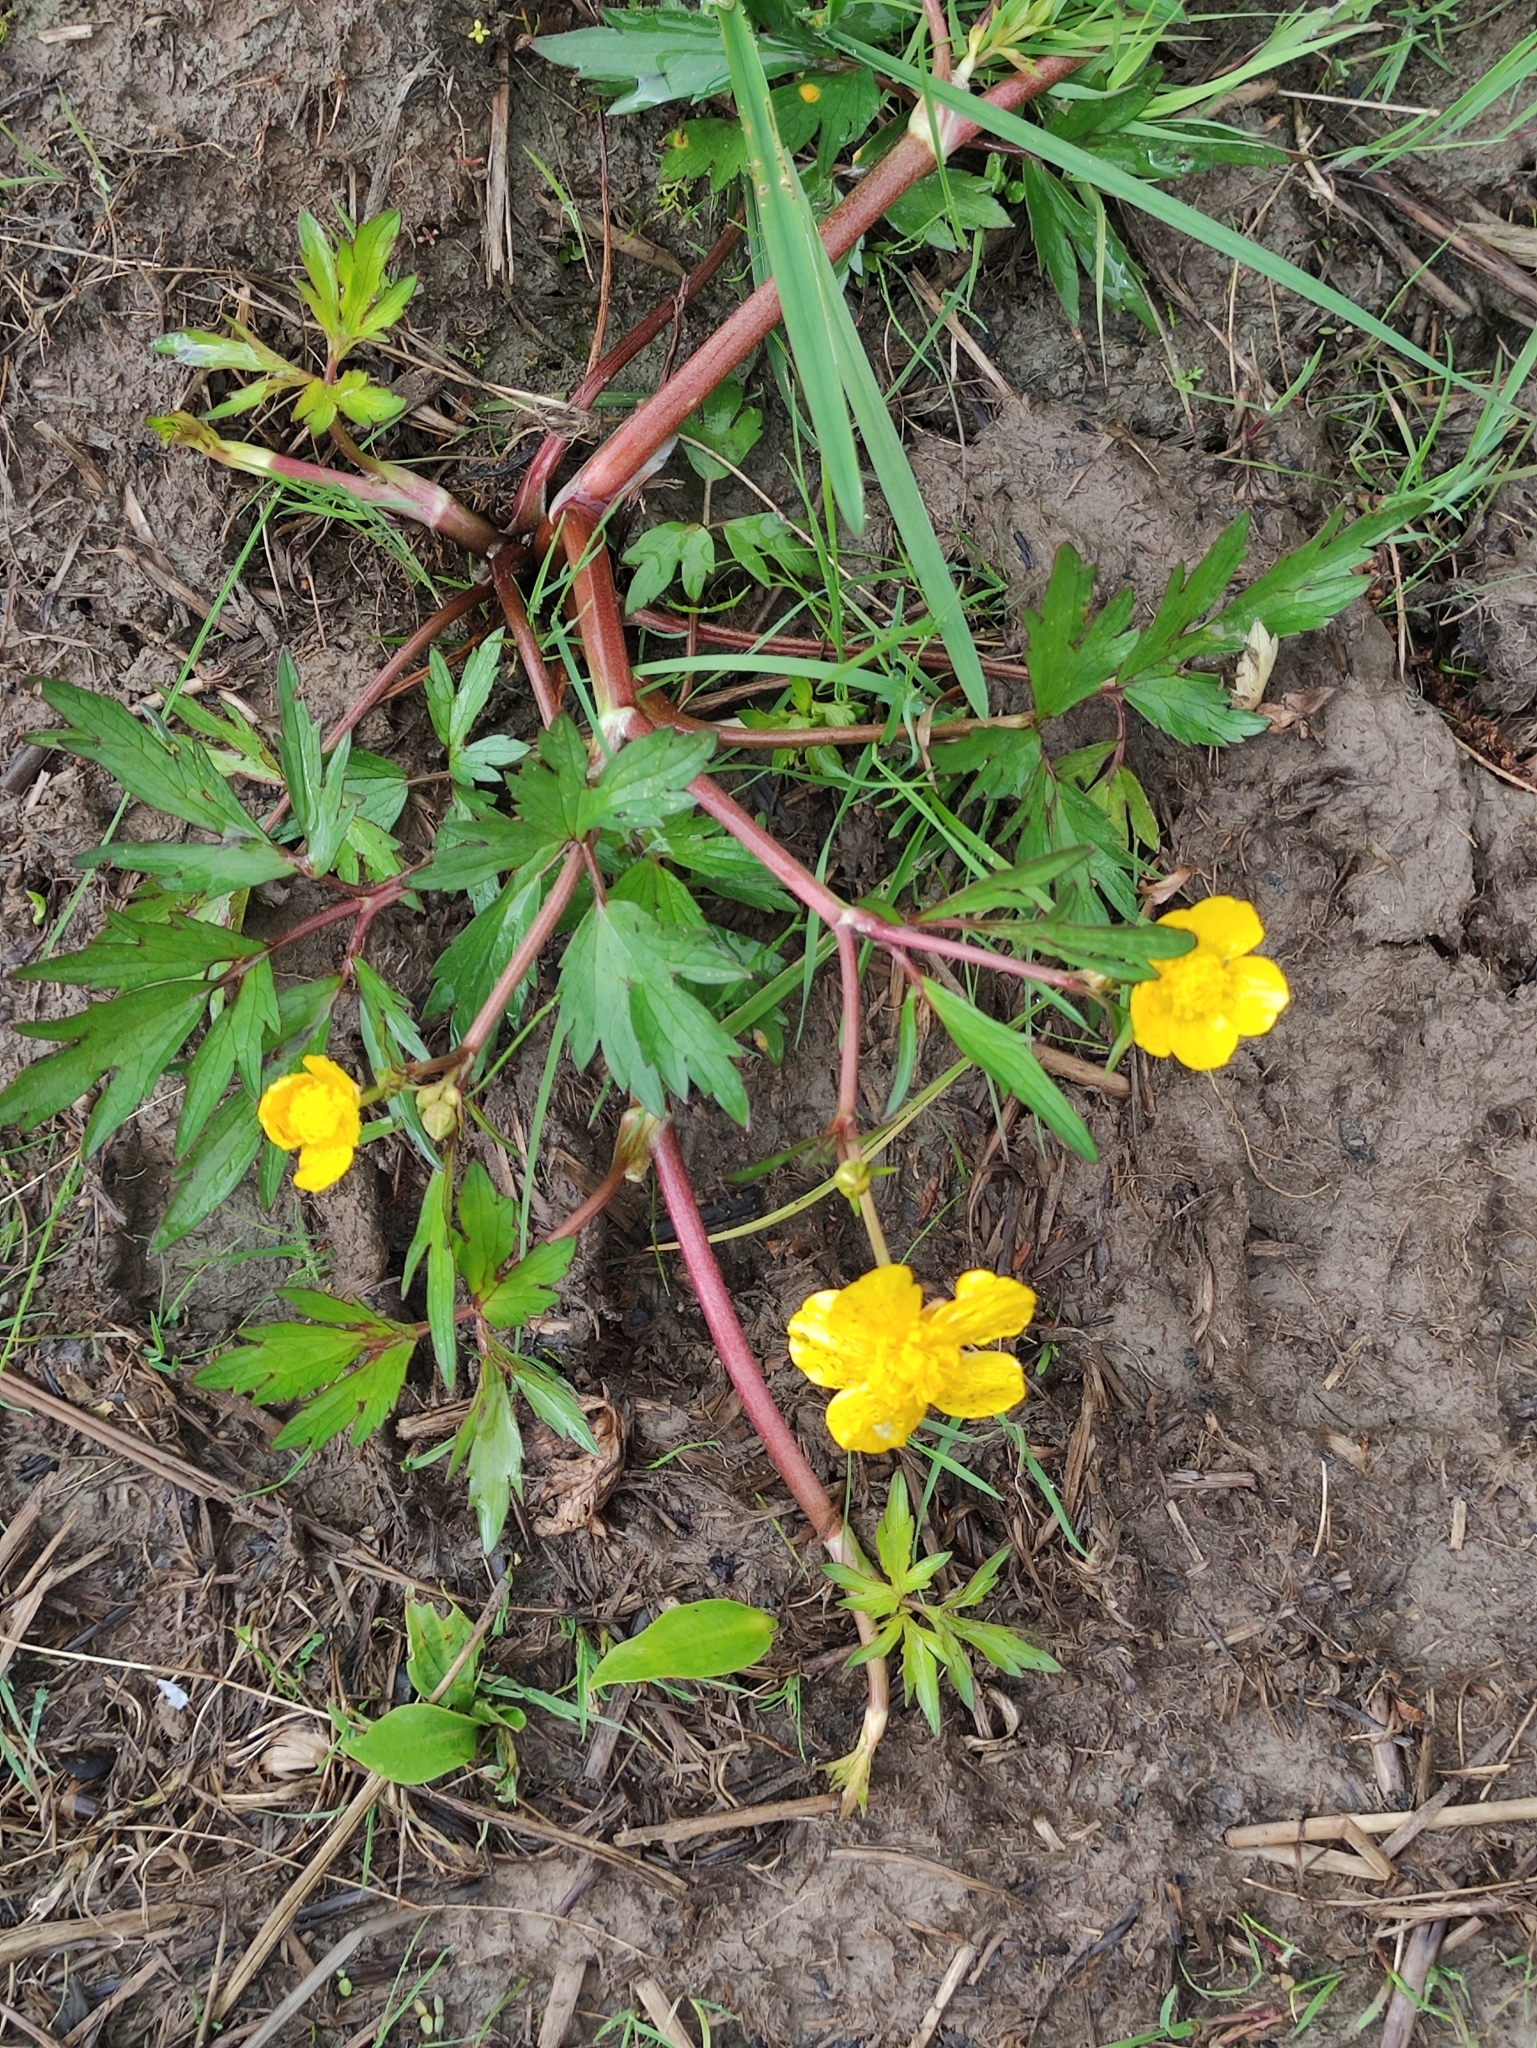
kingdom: Plantae
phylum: Tracheophyta
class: Magnoliopsida
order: Ranunculales
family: Ranunculaceae
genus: Ranunculus
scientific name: Ranunculus repens
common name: Creeping buttercup
